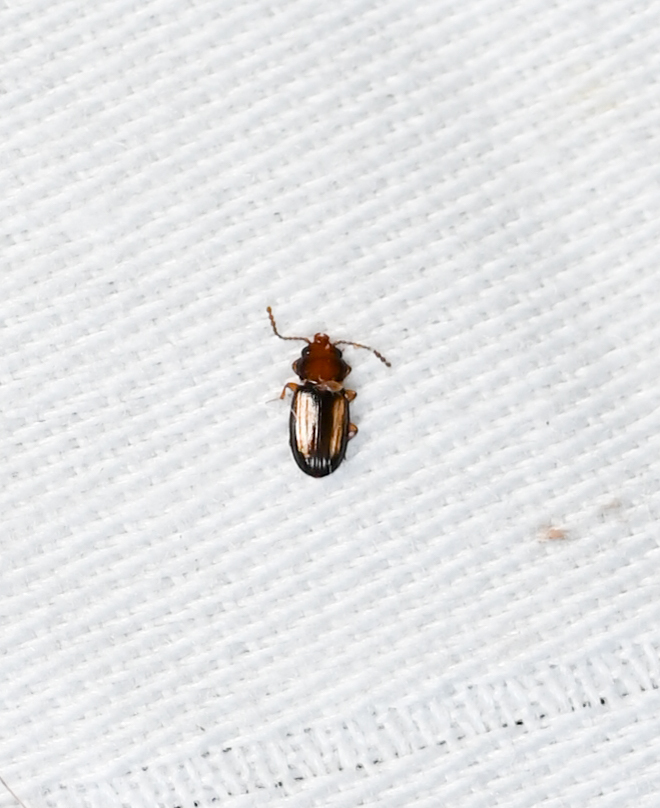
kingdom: Animalia
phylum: Arthropoda
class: Insecta
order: Coleoptera
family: Laemophloeidae
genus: Laemophloeus
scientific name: Laemophloeus terminalis
